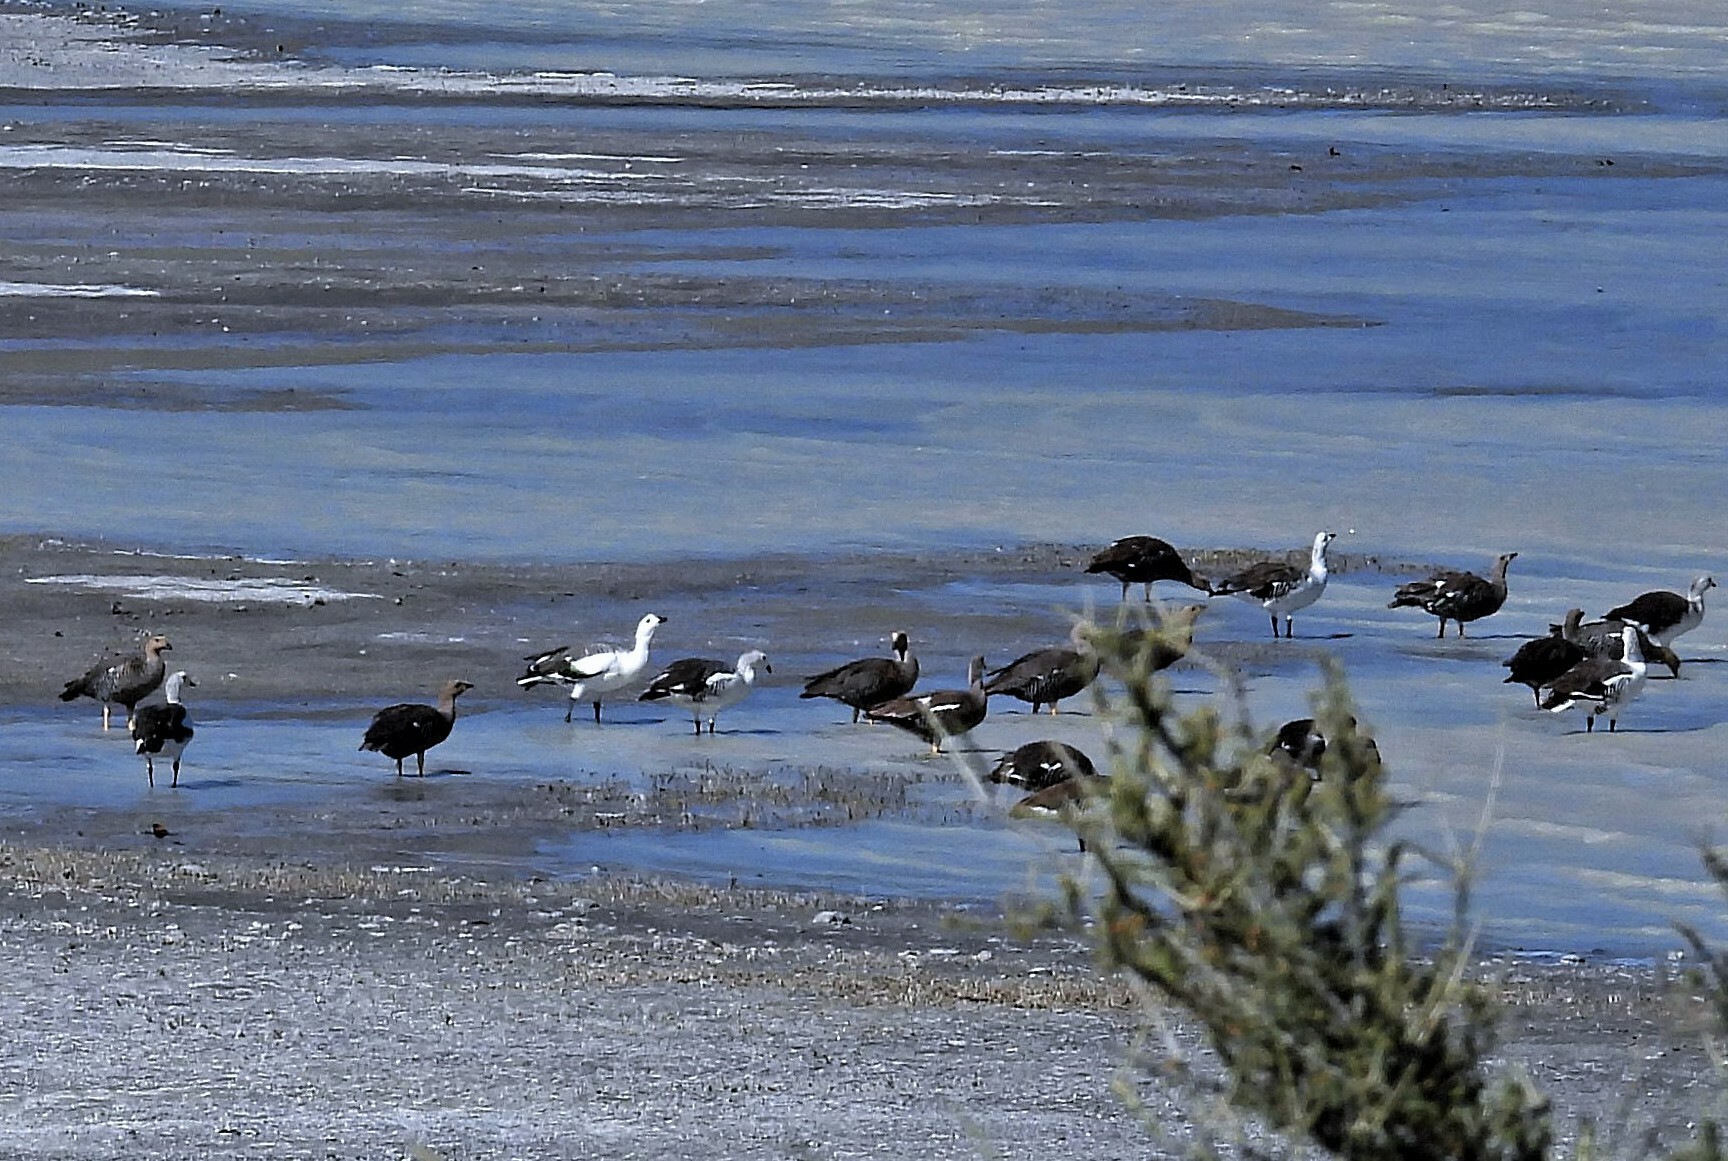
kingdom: Animalia
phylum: Chordata
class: Aves
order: Anseriformes
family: Anatidae
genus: Chloephaga
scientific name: Chloephaga picta
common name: Upland goose
